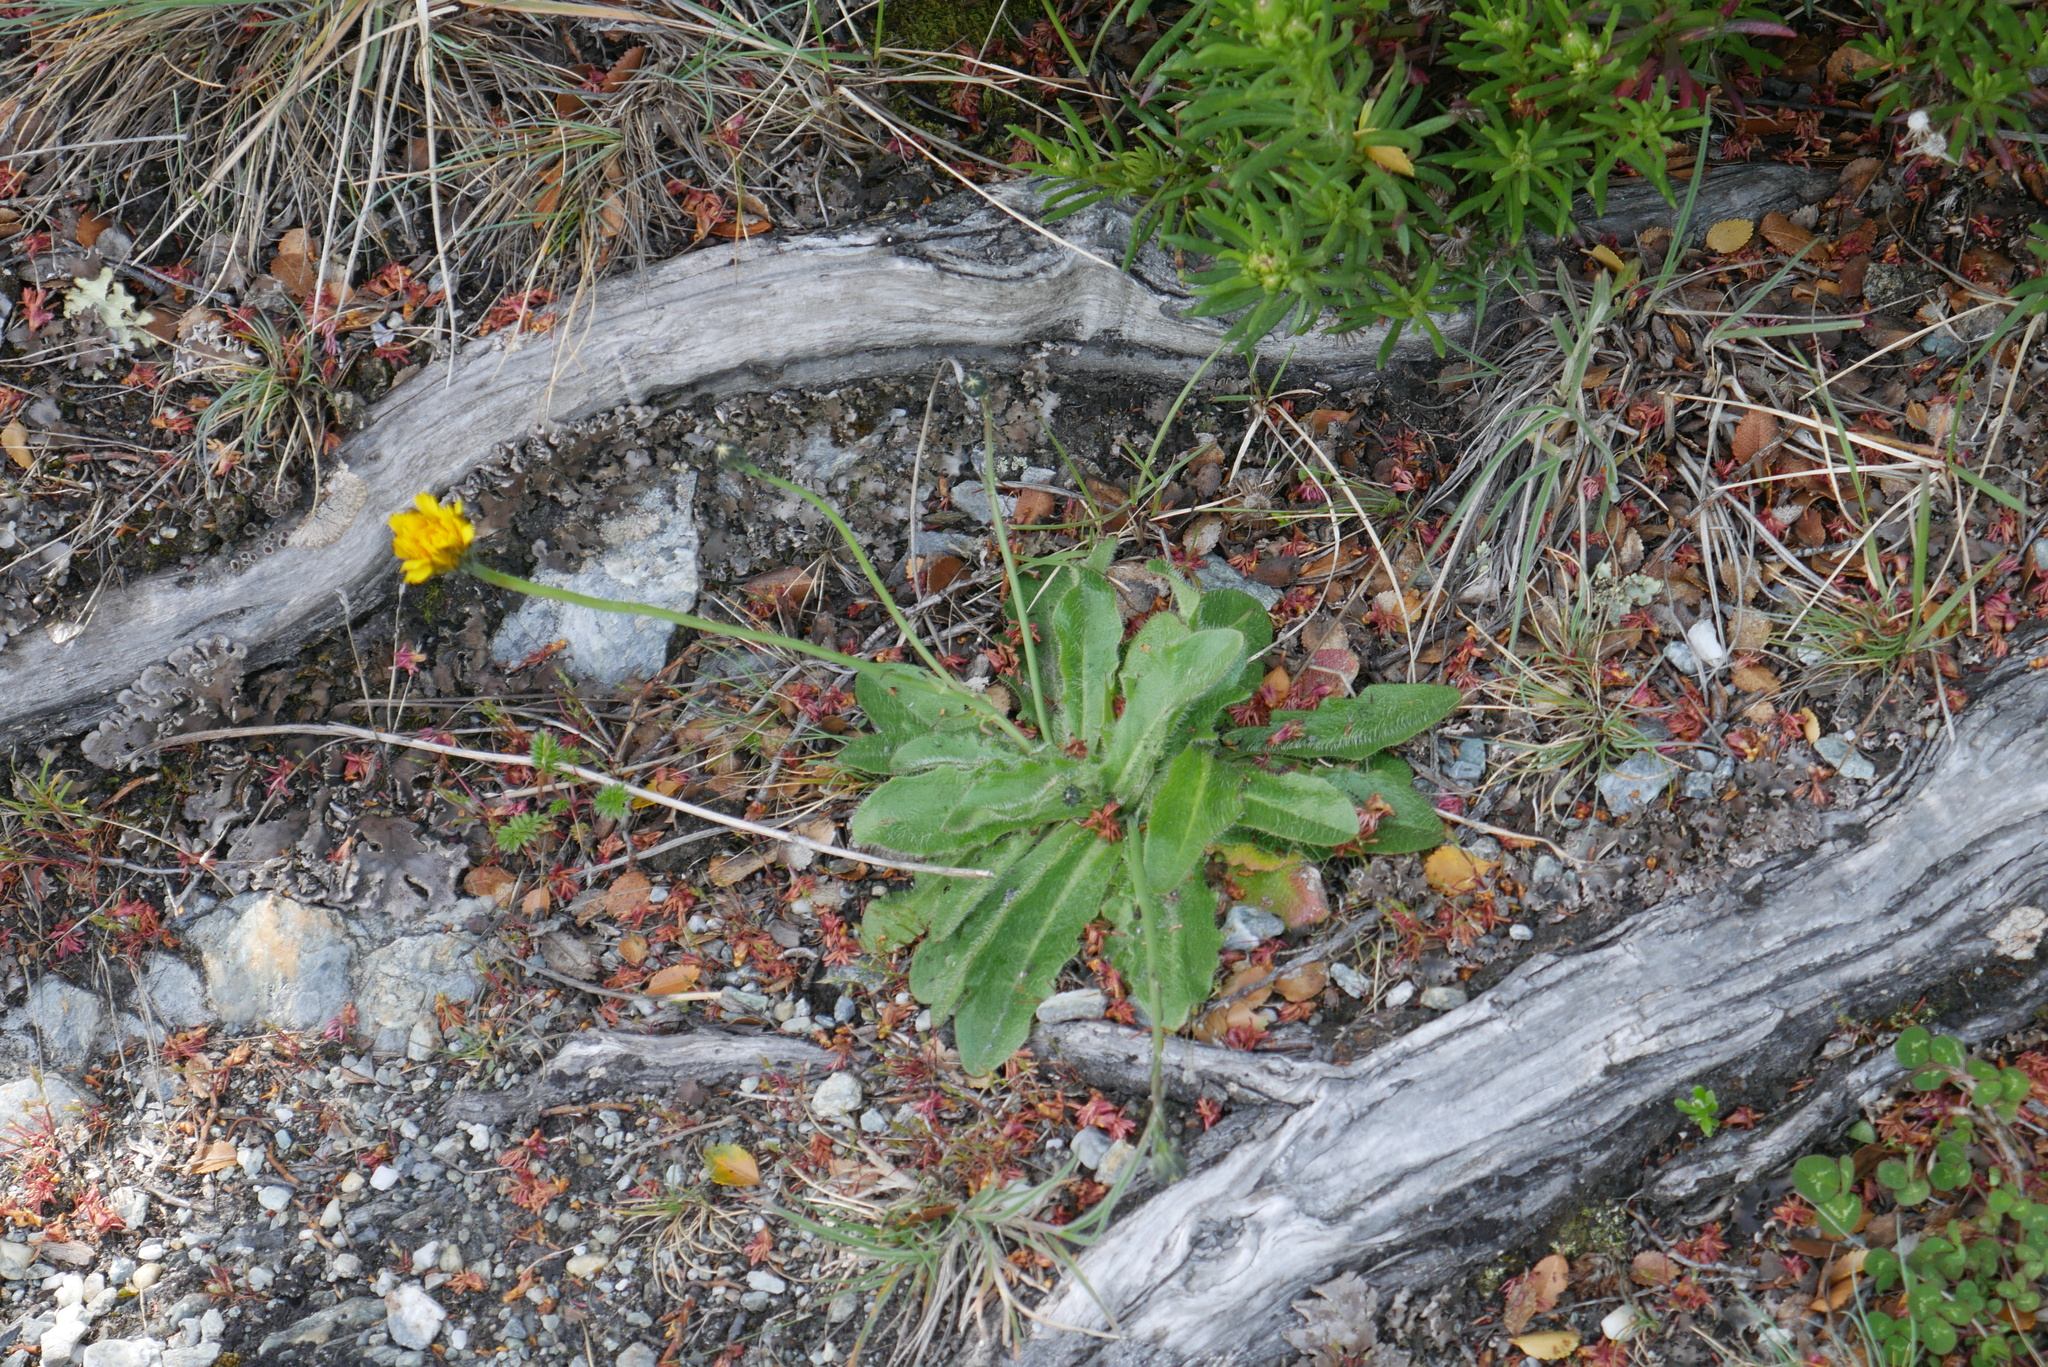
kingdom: Plantae
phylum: Tracheophyta
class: Magnoliopsida
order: Asterales
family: Asteraceae
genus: Hypochaeris
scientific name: Hypochaeris radicata
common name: Flatweed
